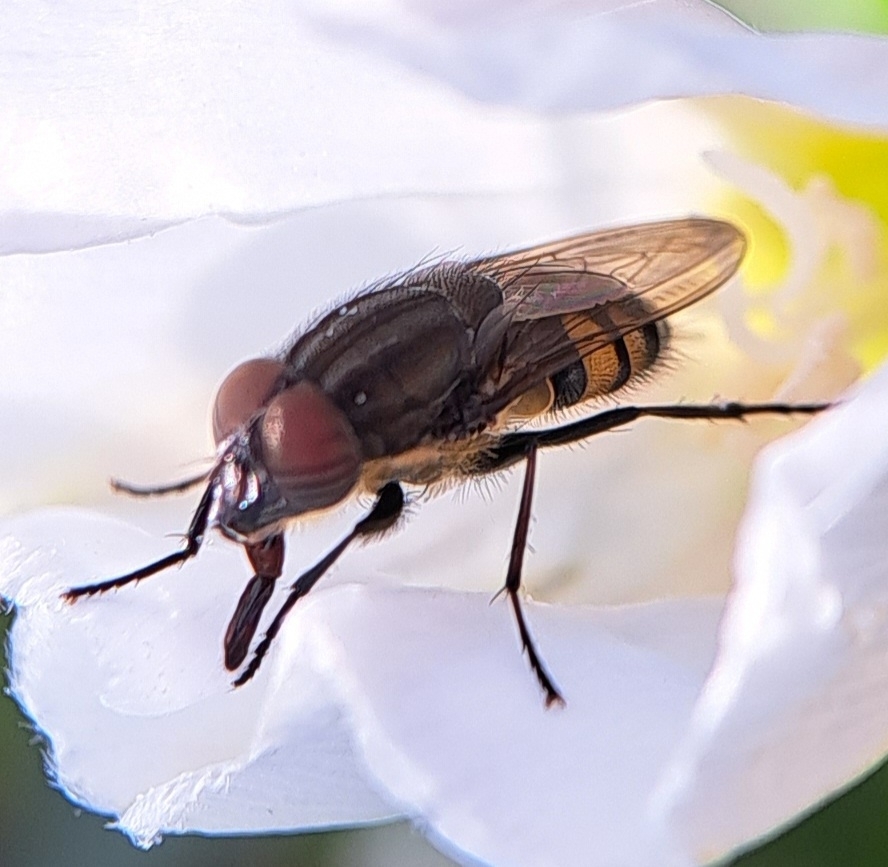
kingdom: Animalia
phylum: Arthropoda
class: Insecta
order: Diptera
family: Calliphoridae
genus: Stomorhina
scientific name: Stomorhina lunata
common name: Locust blowfly
